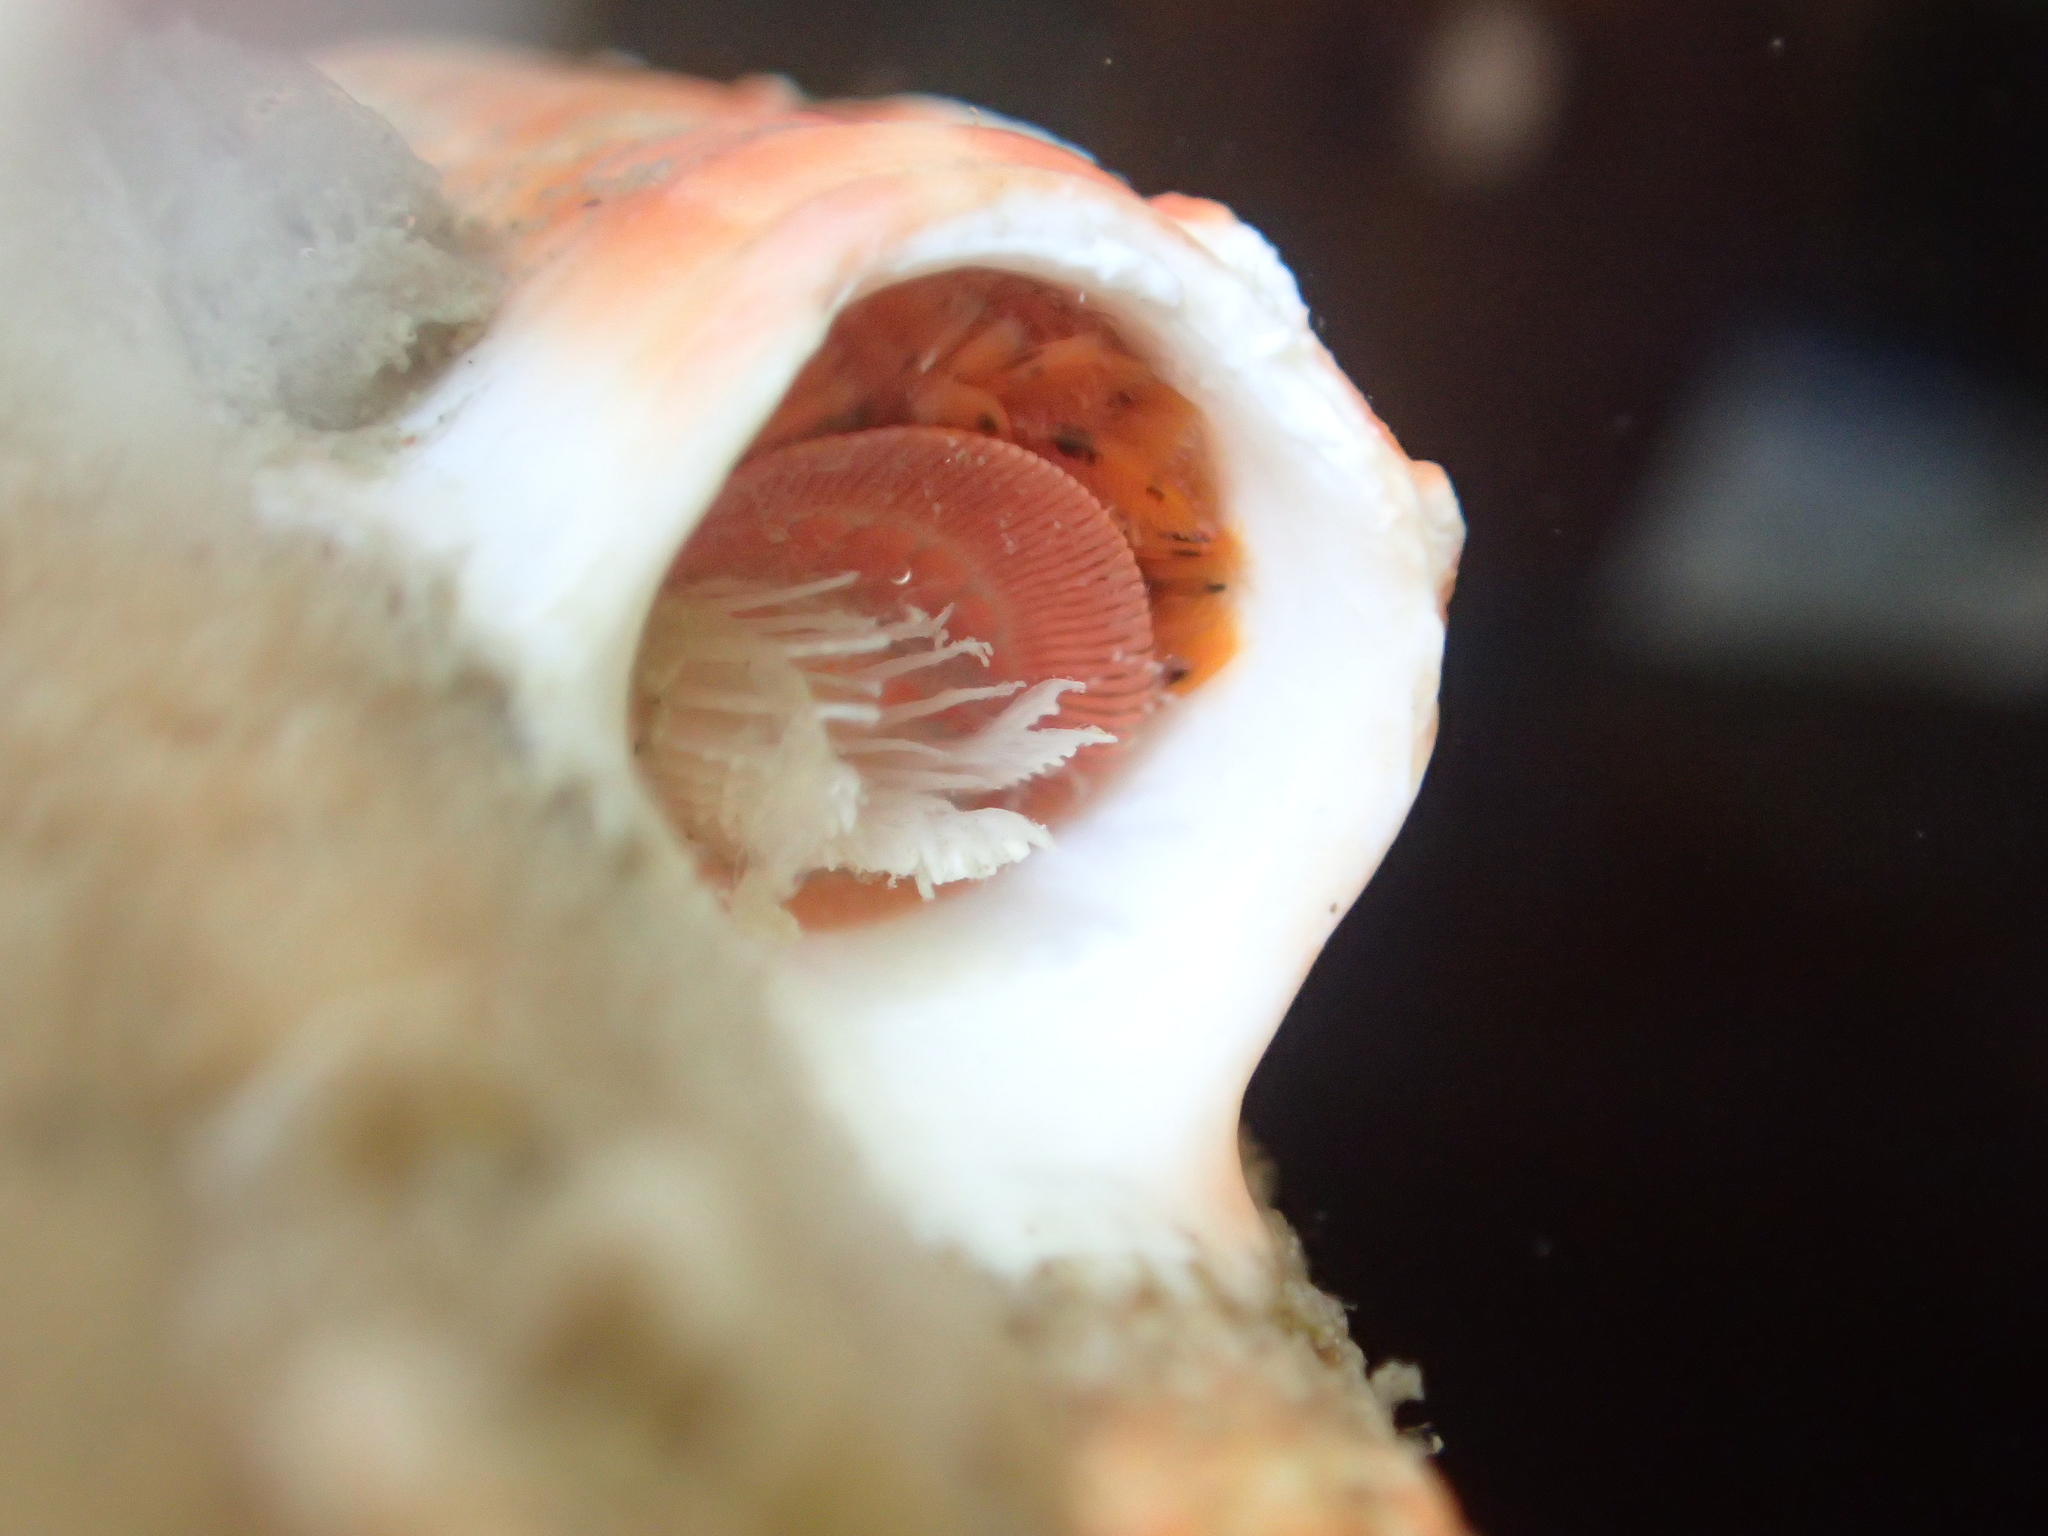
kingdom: Animalia
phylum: Annelida
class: Polychaeta
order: Sabellida
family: Serpulidae
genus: Galeolaria
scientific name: Galeolaria hystrix
